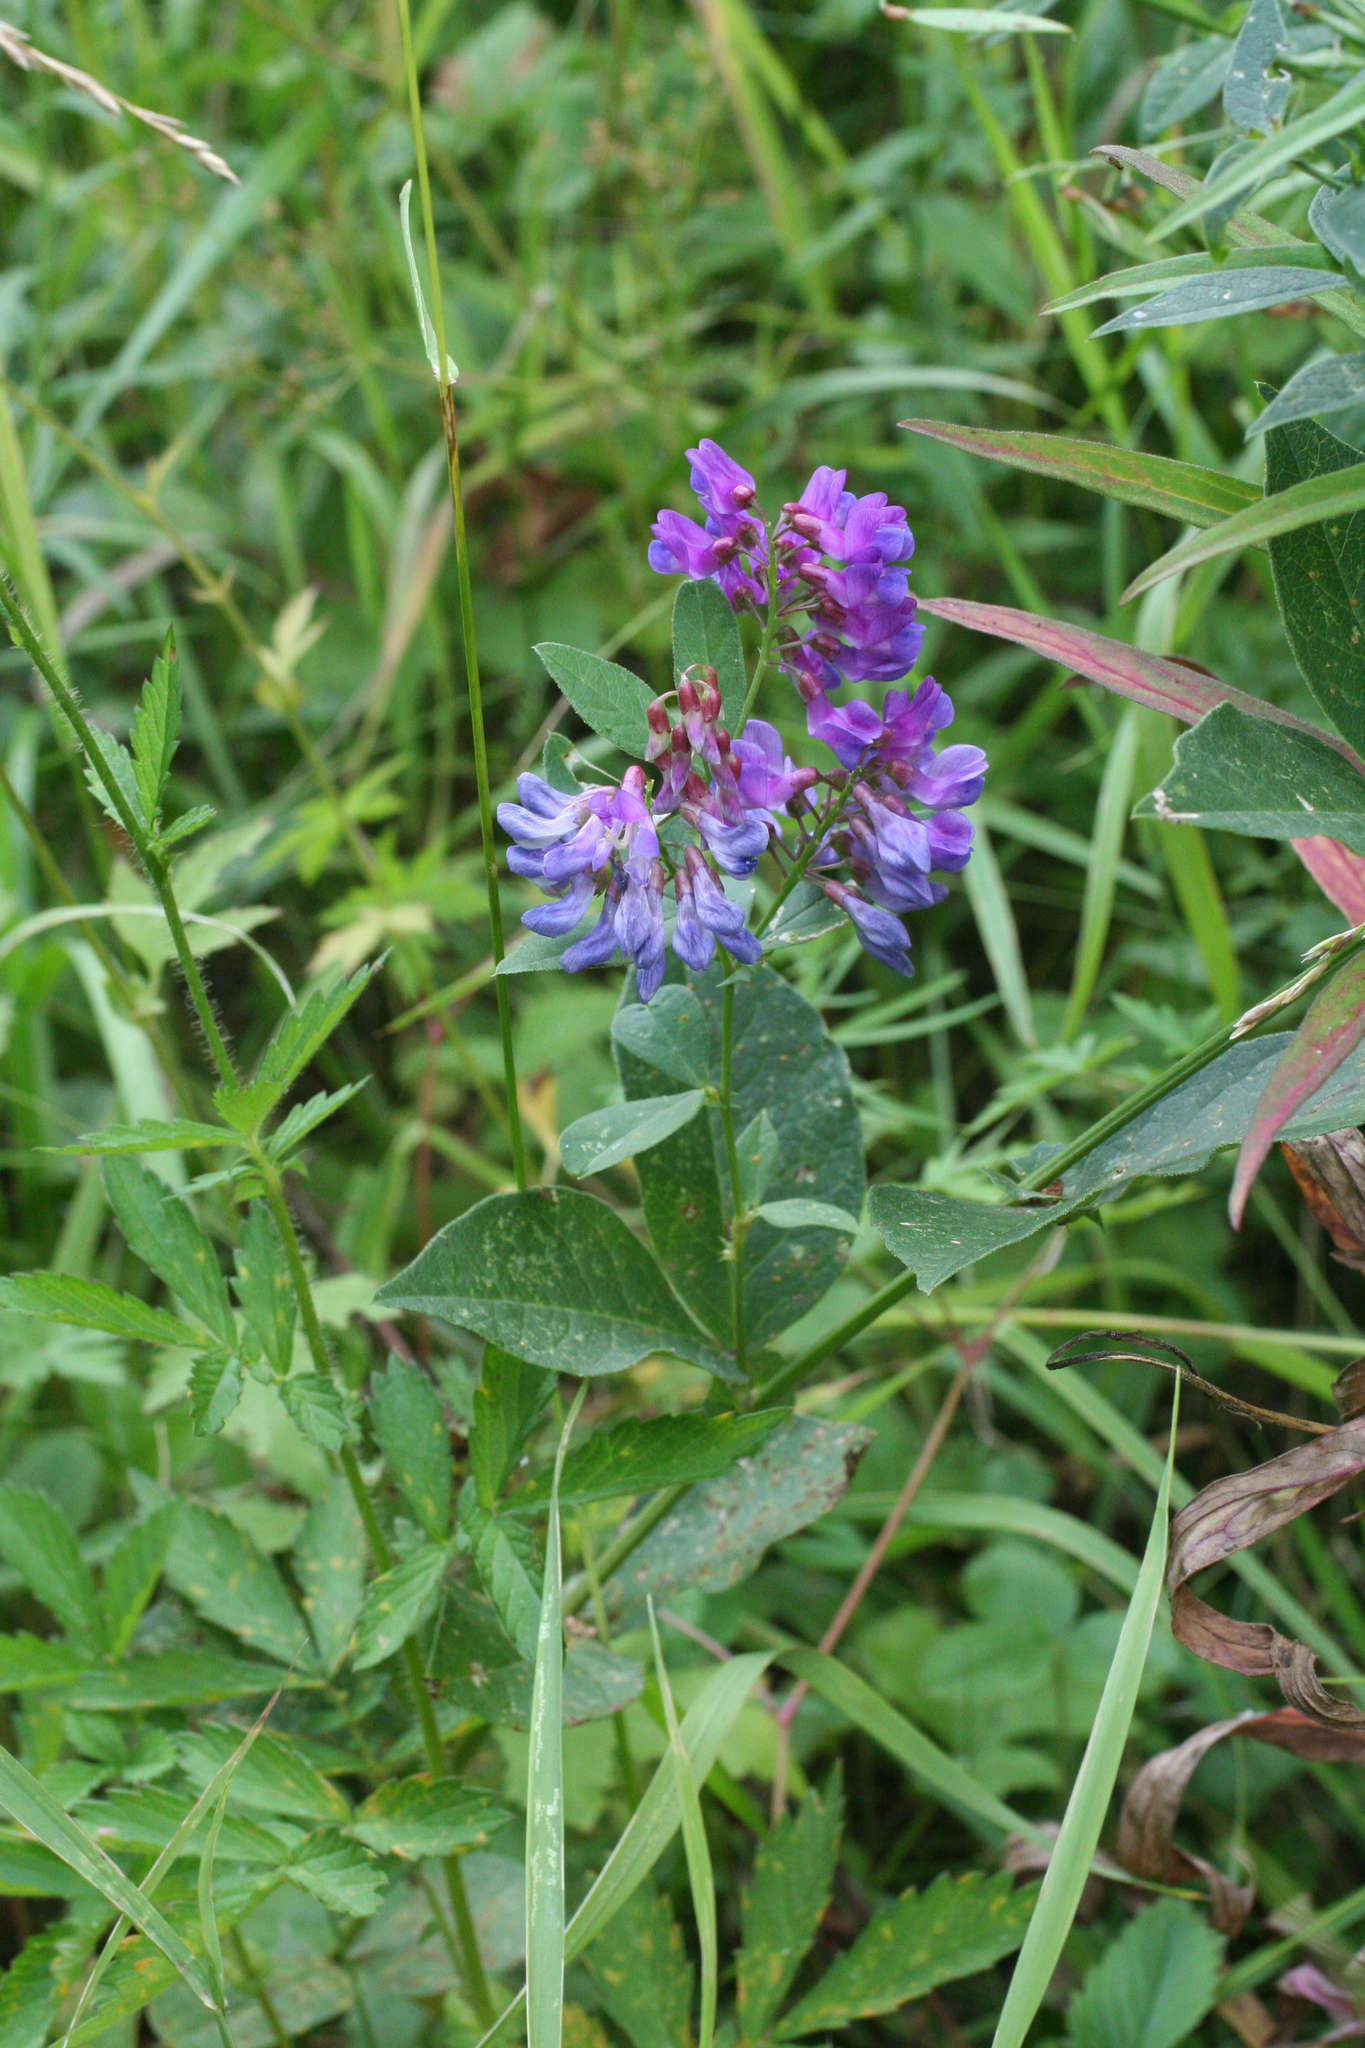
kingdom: Plantae
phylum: Tracheophyta
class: Magnoliopsida
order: Fabales
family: Fabaceae
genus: Vicia
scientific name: Vicia unijuga
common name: Two-leaf vetch
